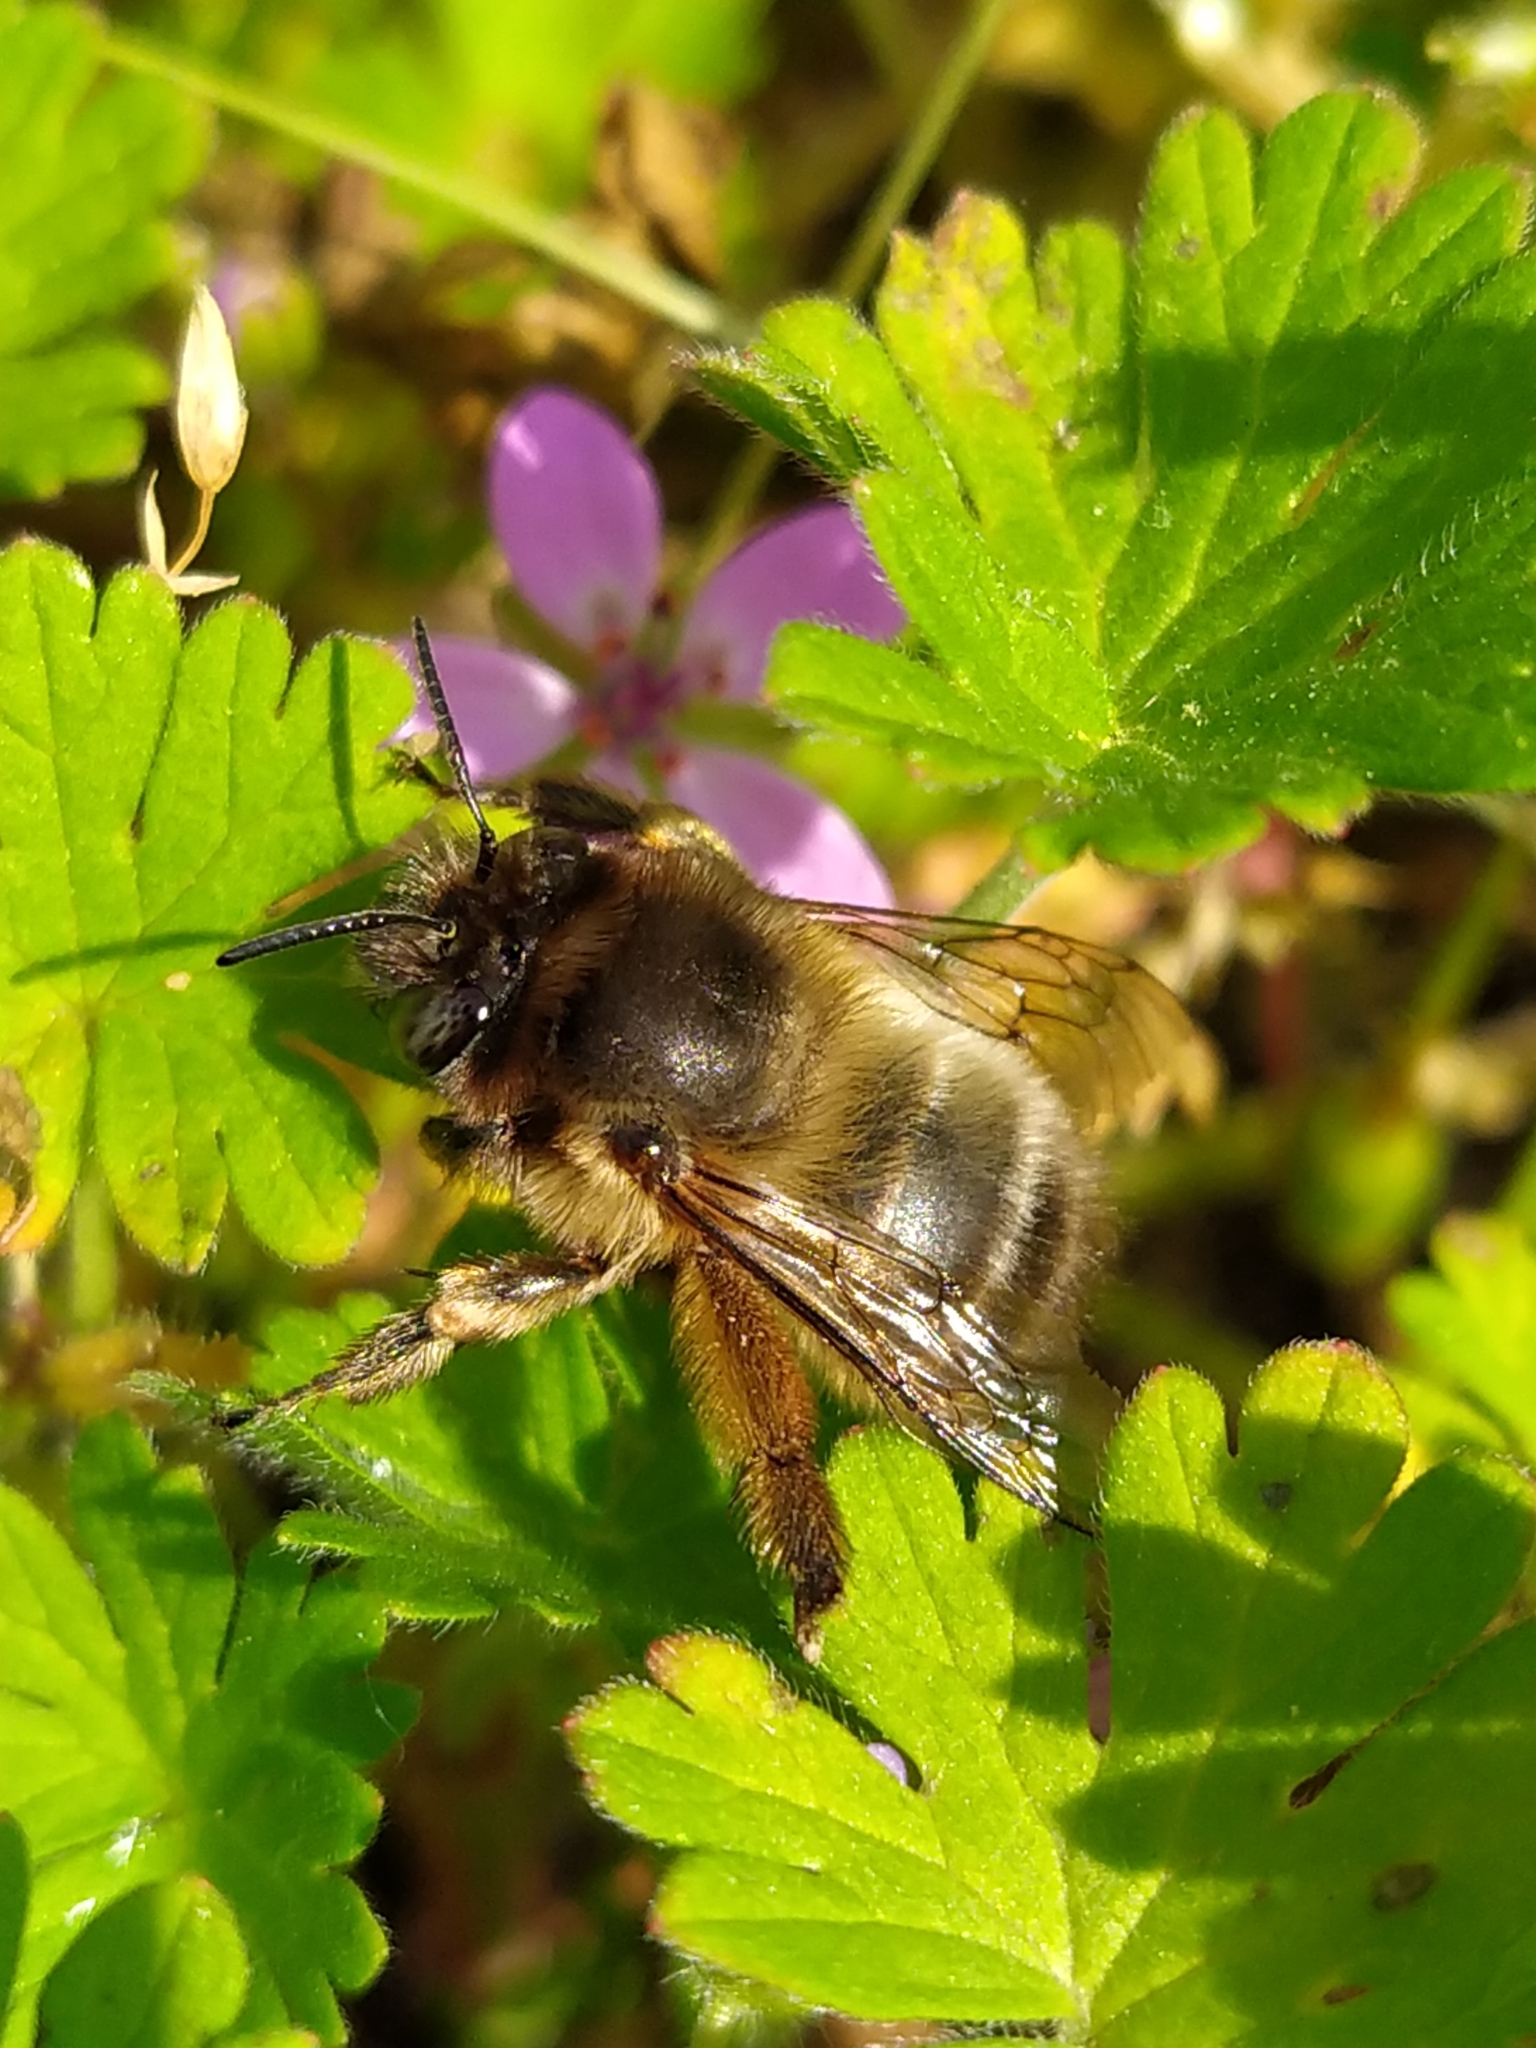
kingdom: Animalia
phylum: Arthropoda
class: Insecta
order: Hymenoptera
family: Apidae
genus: Anthophora
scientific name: Anthophora plumipes
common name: Hairy-footed flower bee
